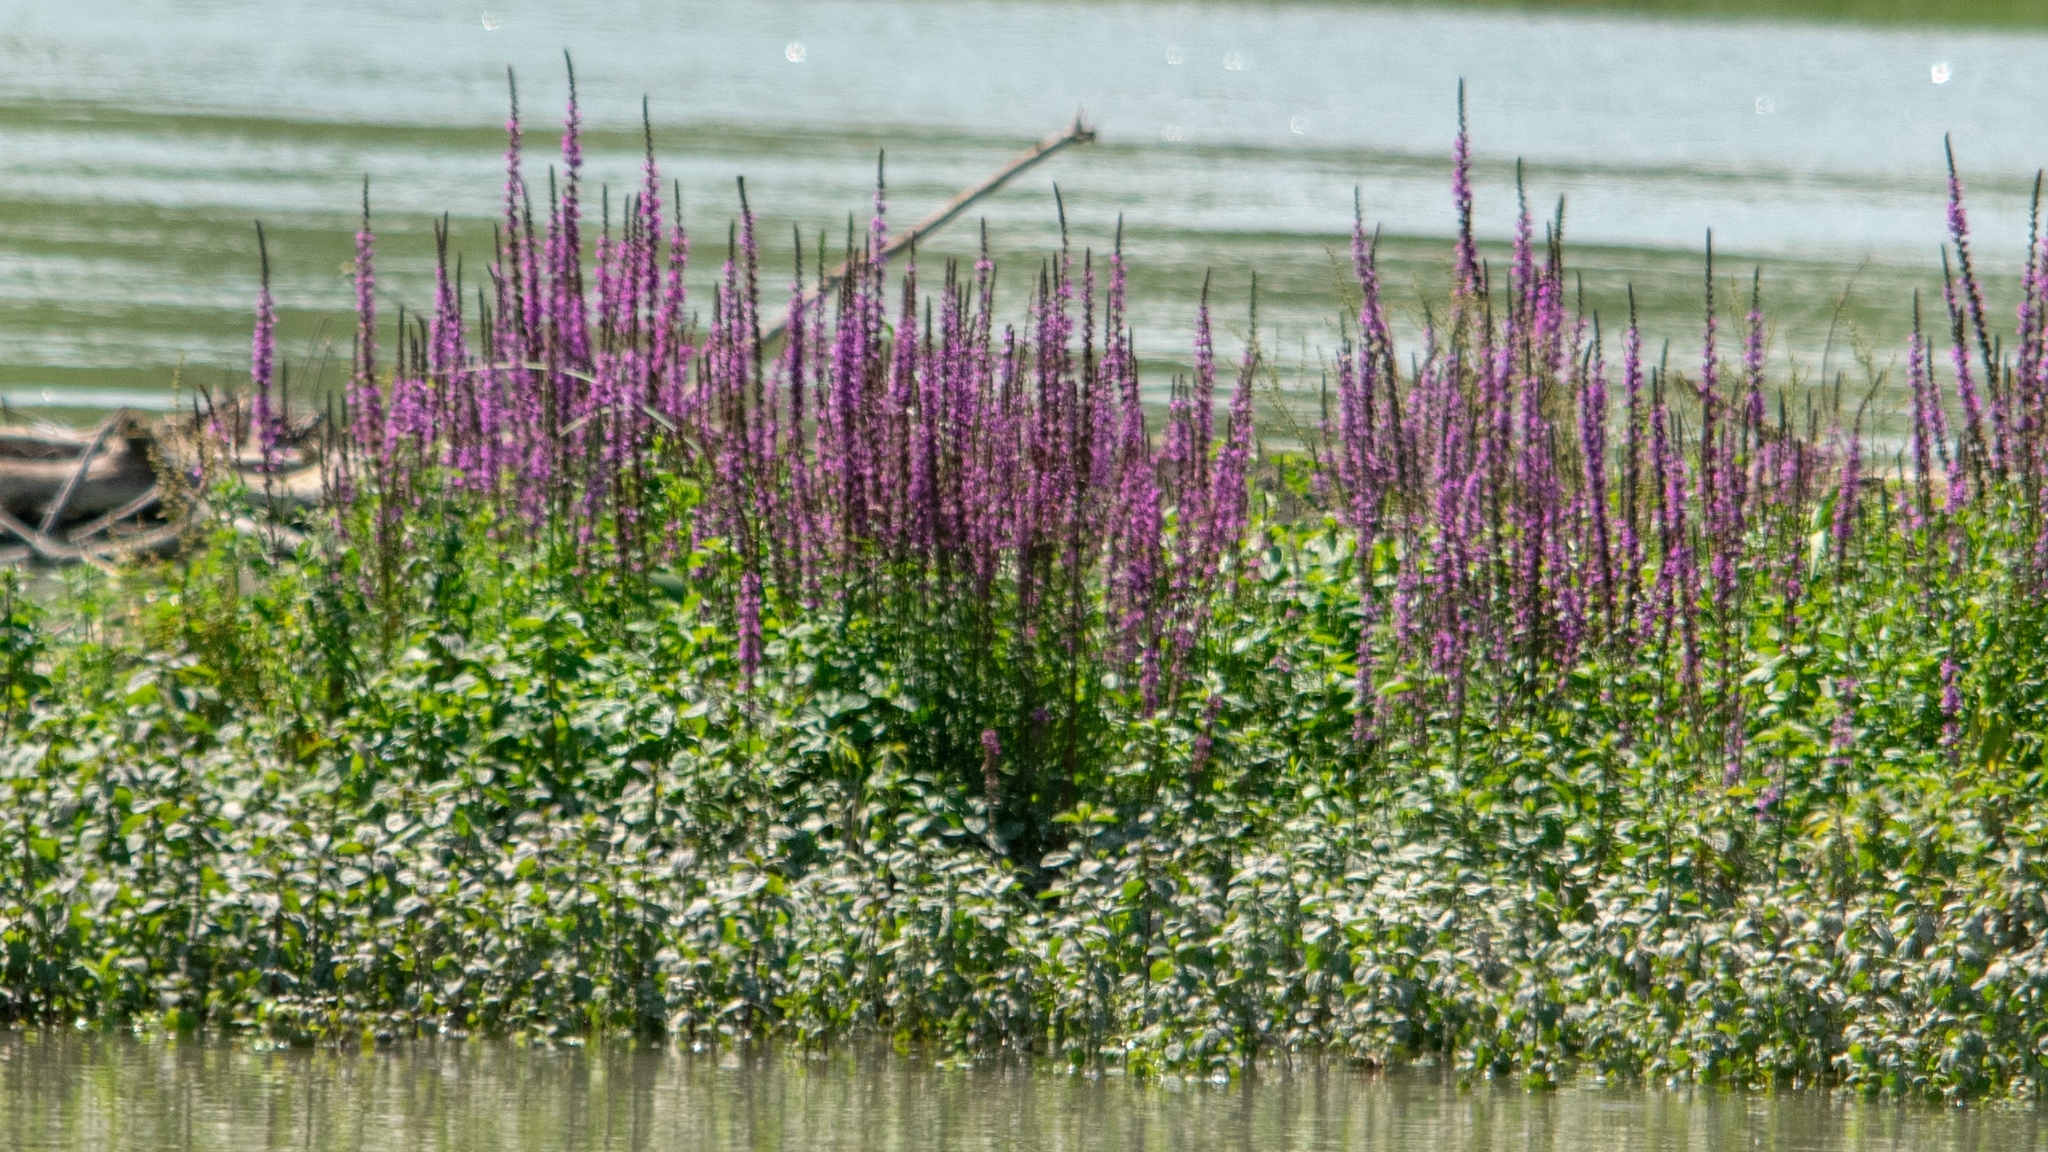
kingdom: Plantae
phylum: Tracheophyta
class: Magnoliopsida
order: Myrtales
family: Lythraceae
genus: Lythrum
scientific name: Lythrum salicaria
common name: Purple loosestrife
